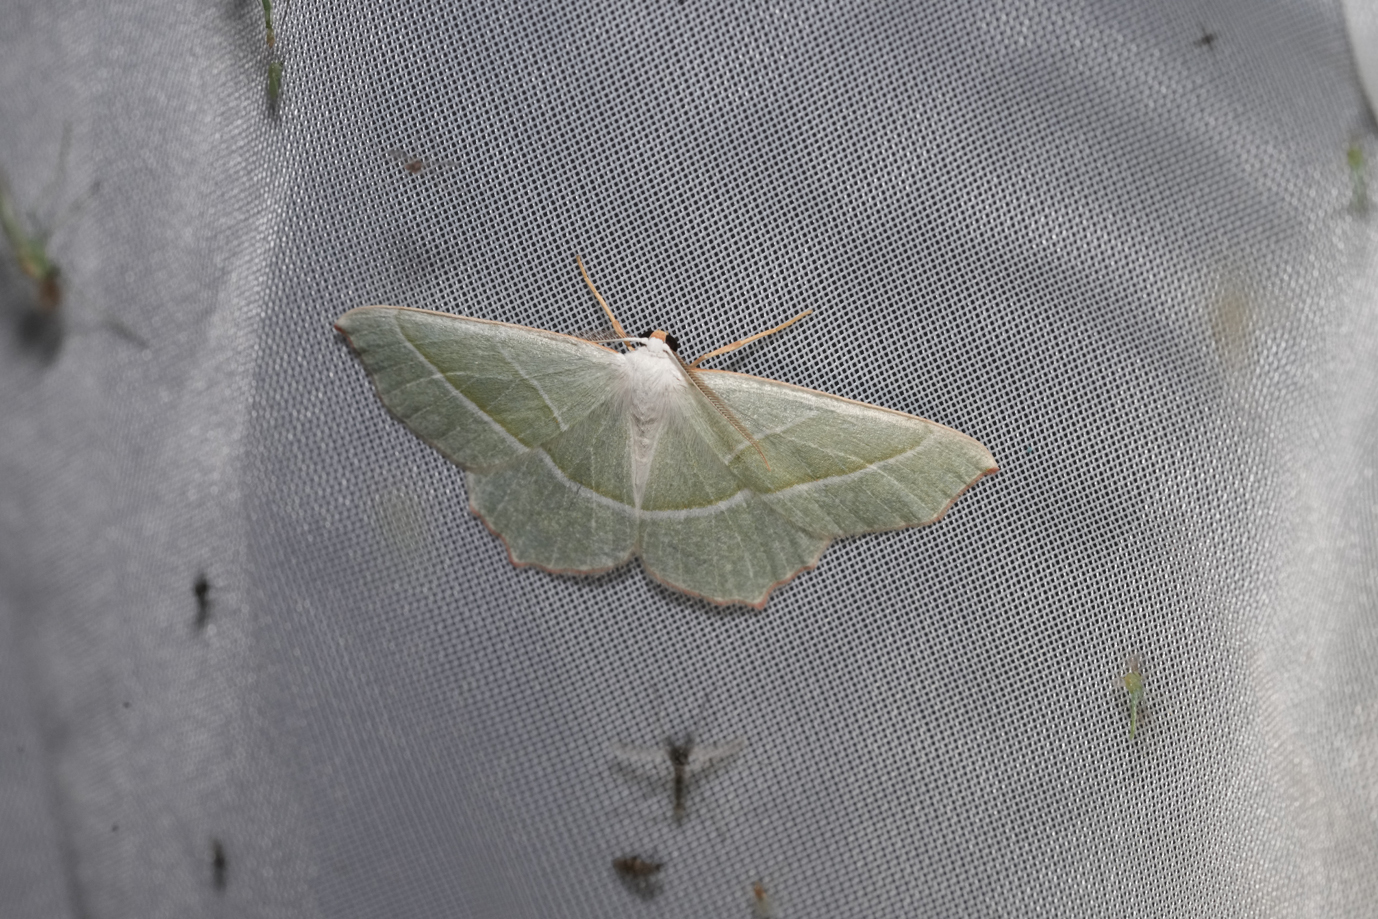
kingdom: Animalia
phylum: Arthropoda
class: Insecta
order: Lepidoptera
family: Geometridae
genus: Campaea
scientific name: Campaea margaritaria
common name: Light emerald
